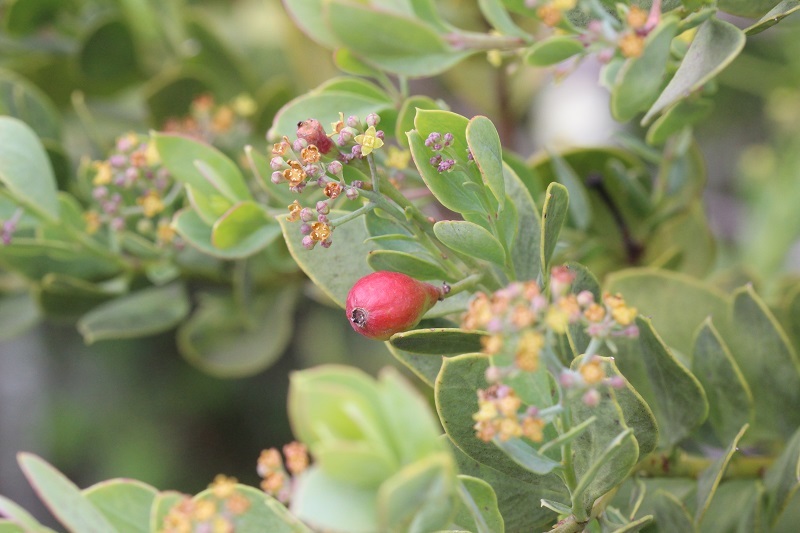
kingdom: Plantae
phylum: Tracheophyta
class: Magnoliopsida
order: Santalales
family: Santalaceae
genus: Osyris
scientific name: Osyris compressa
